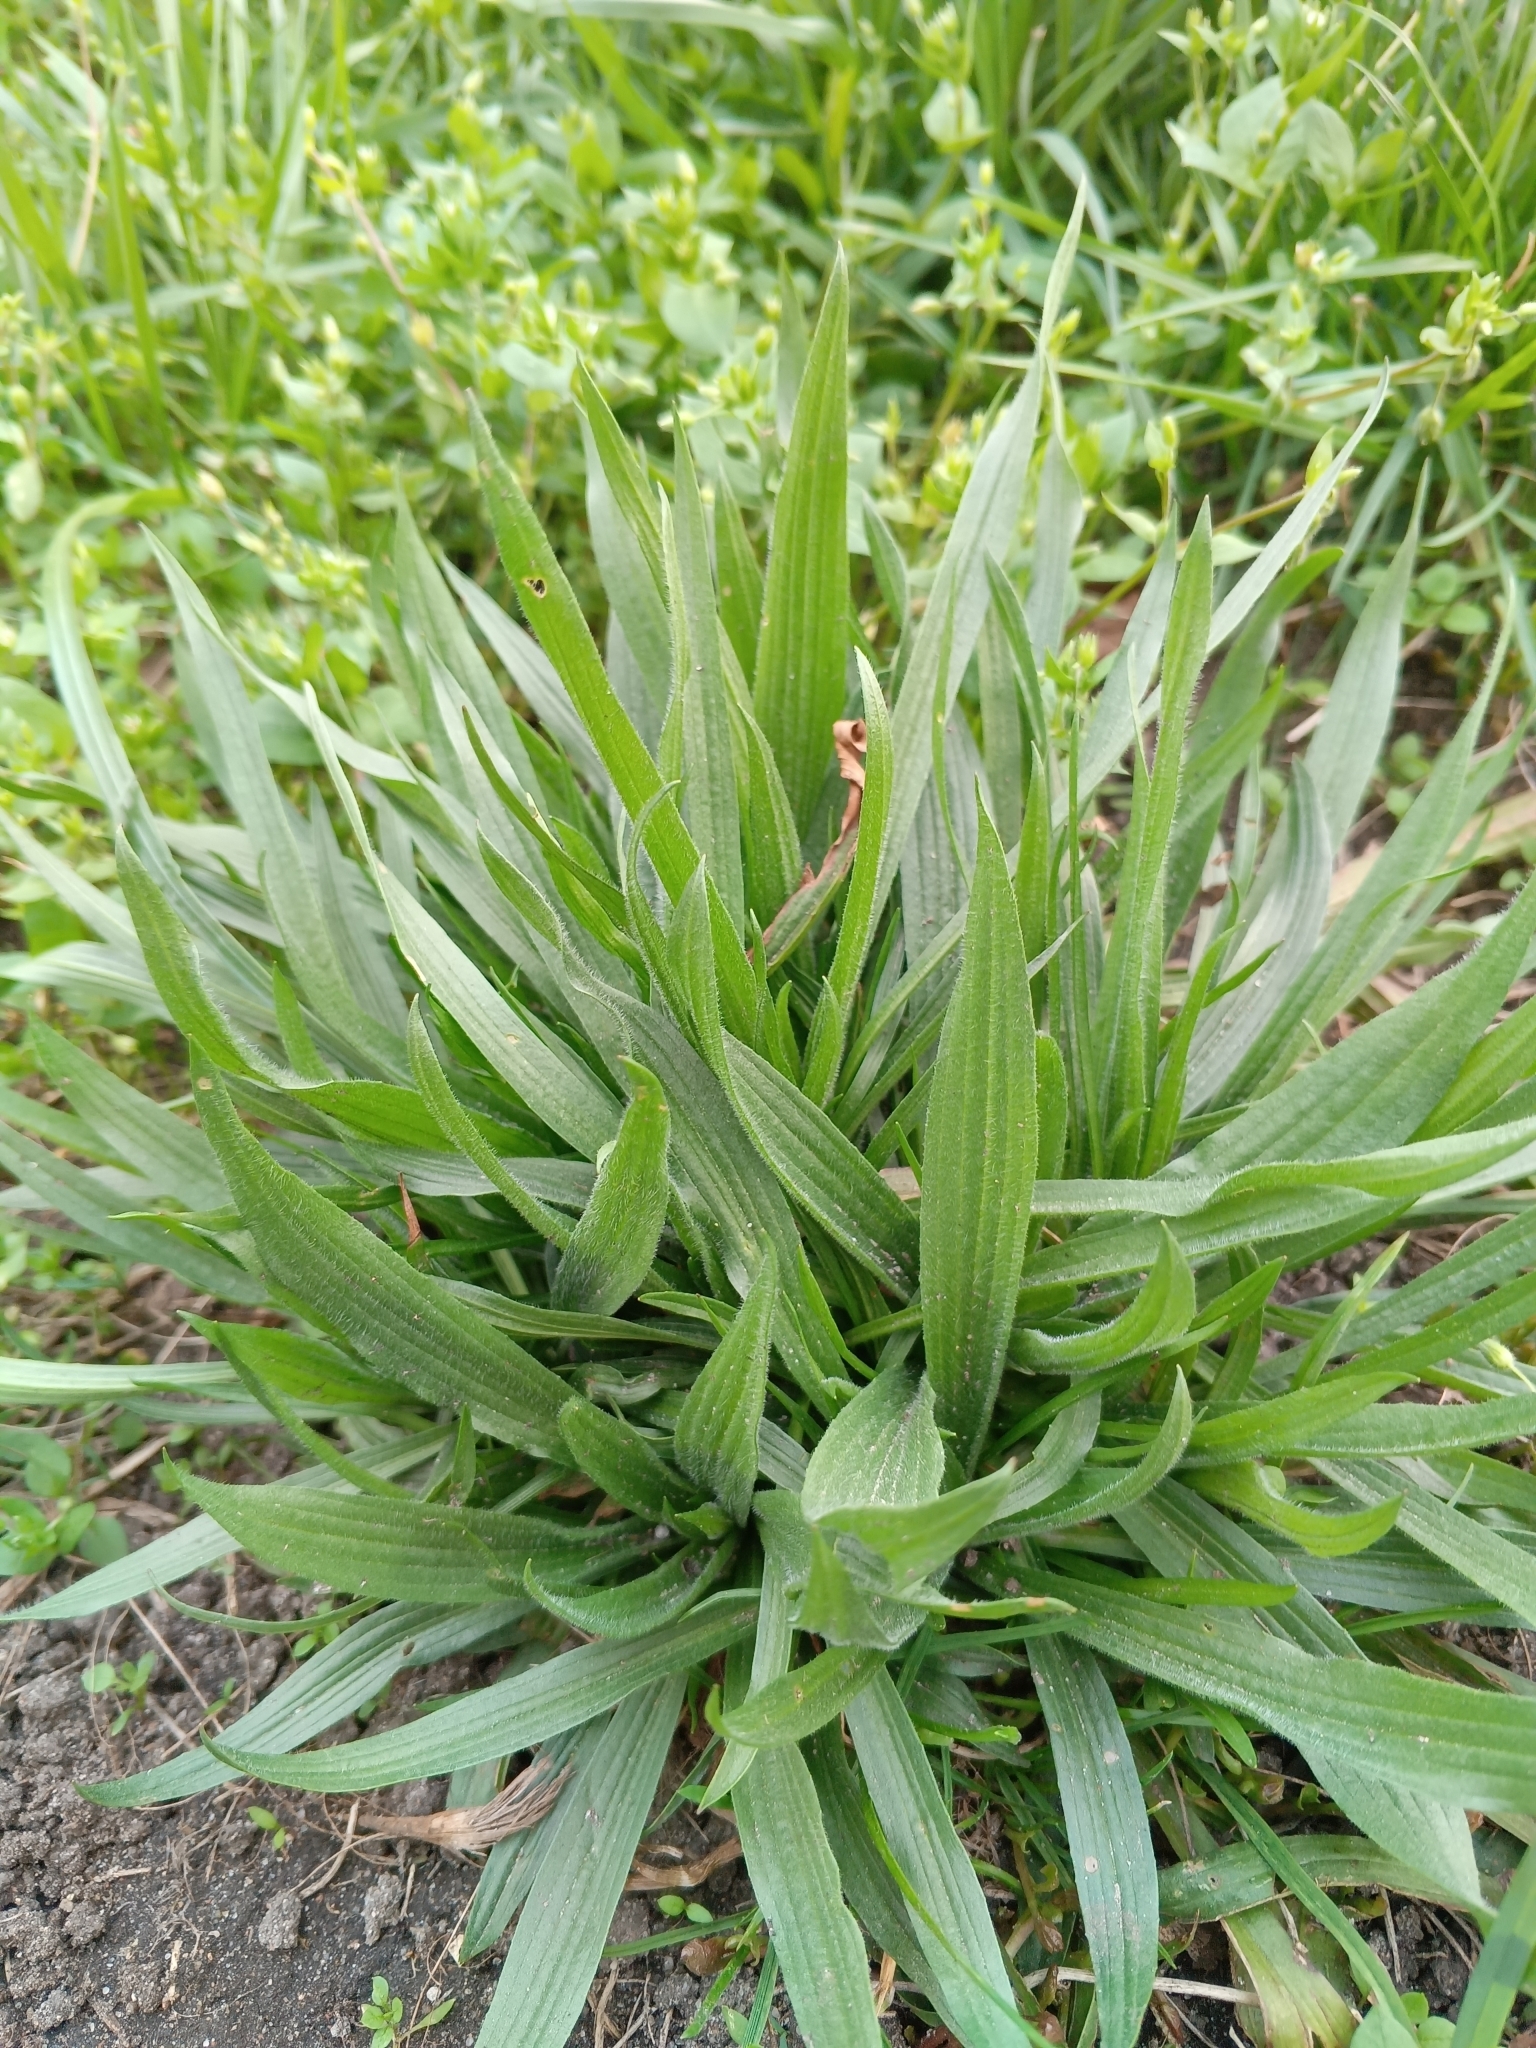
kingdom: Plantae
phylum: Tracheophyta
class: Magnoliopsida
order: Lamiales
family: Plantaginaceae
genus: Plantago
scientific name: Plantago lanceolata
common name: Ribwort plantain
